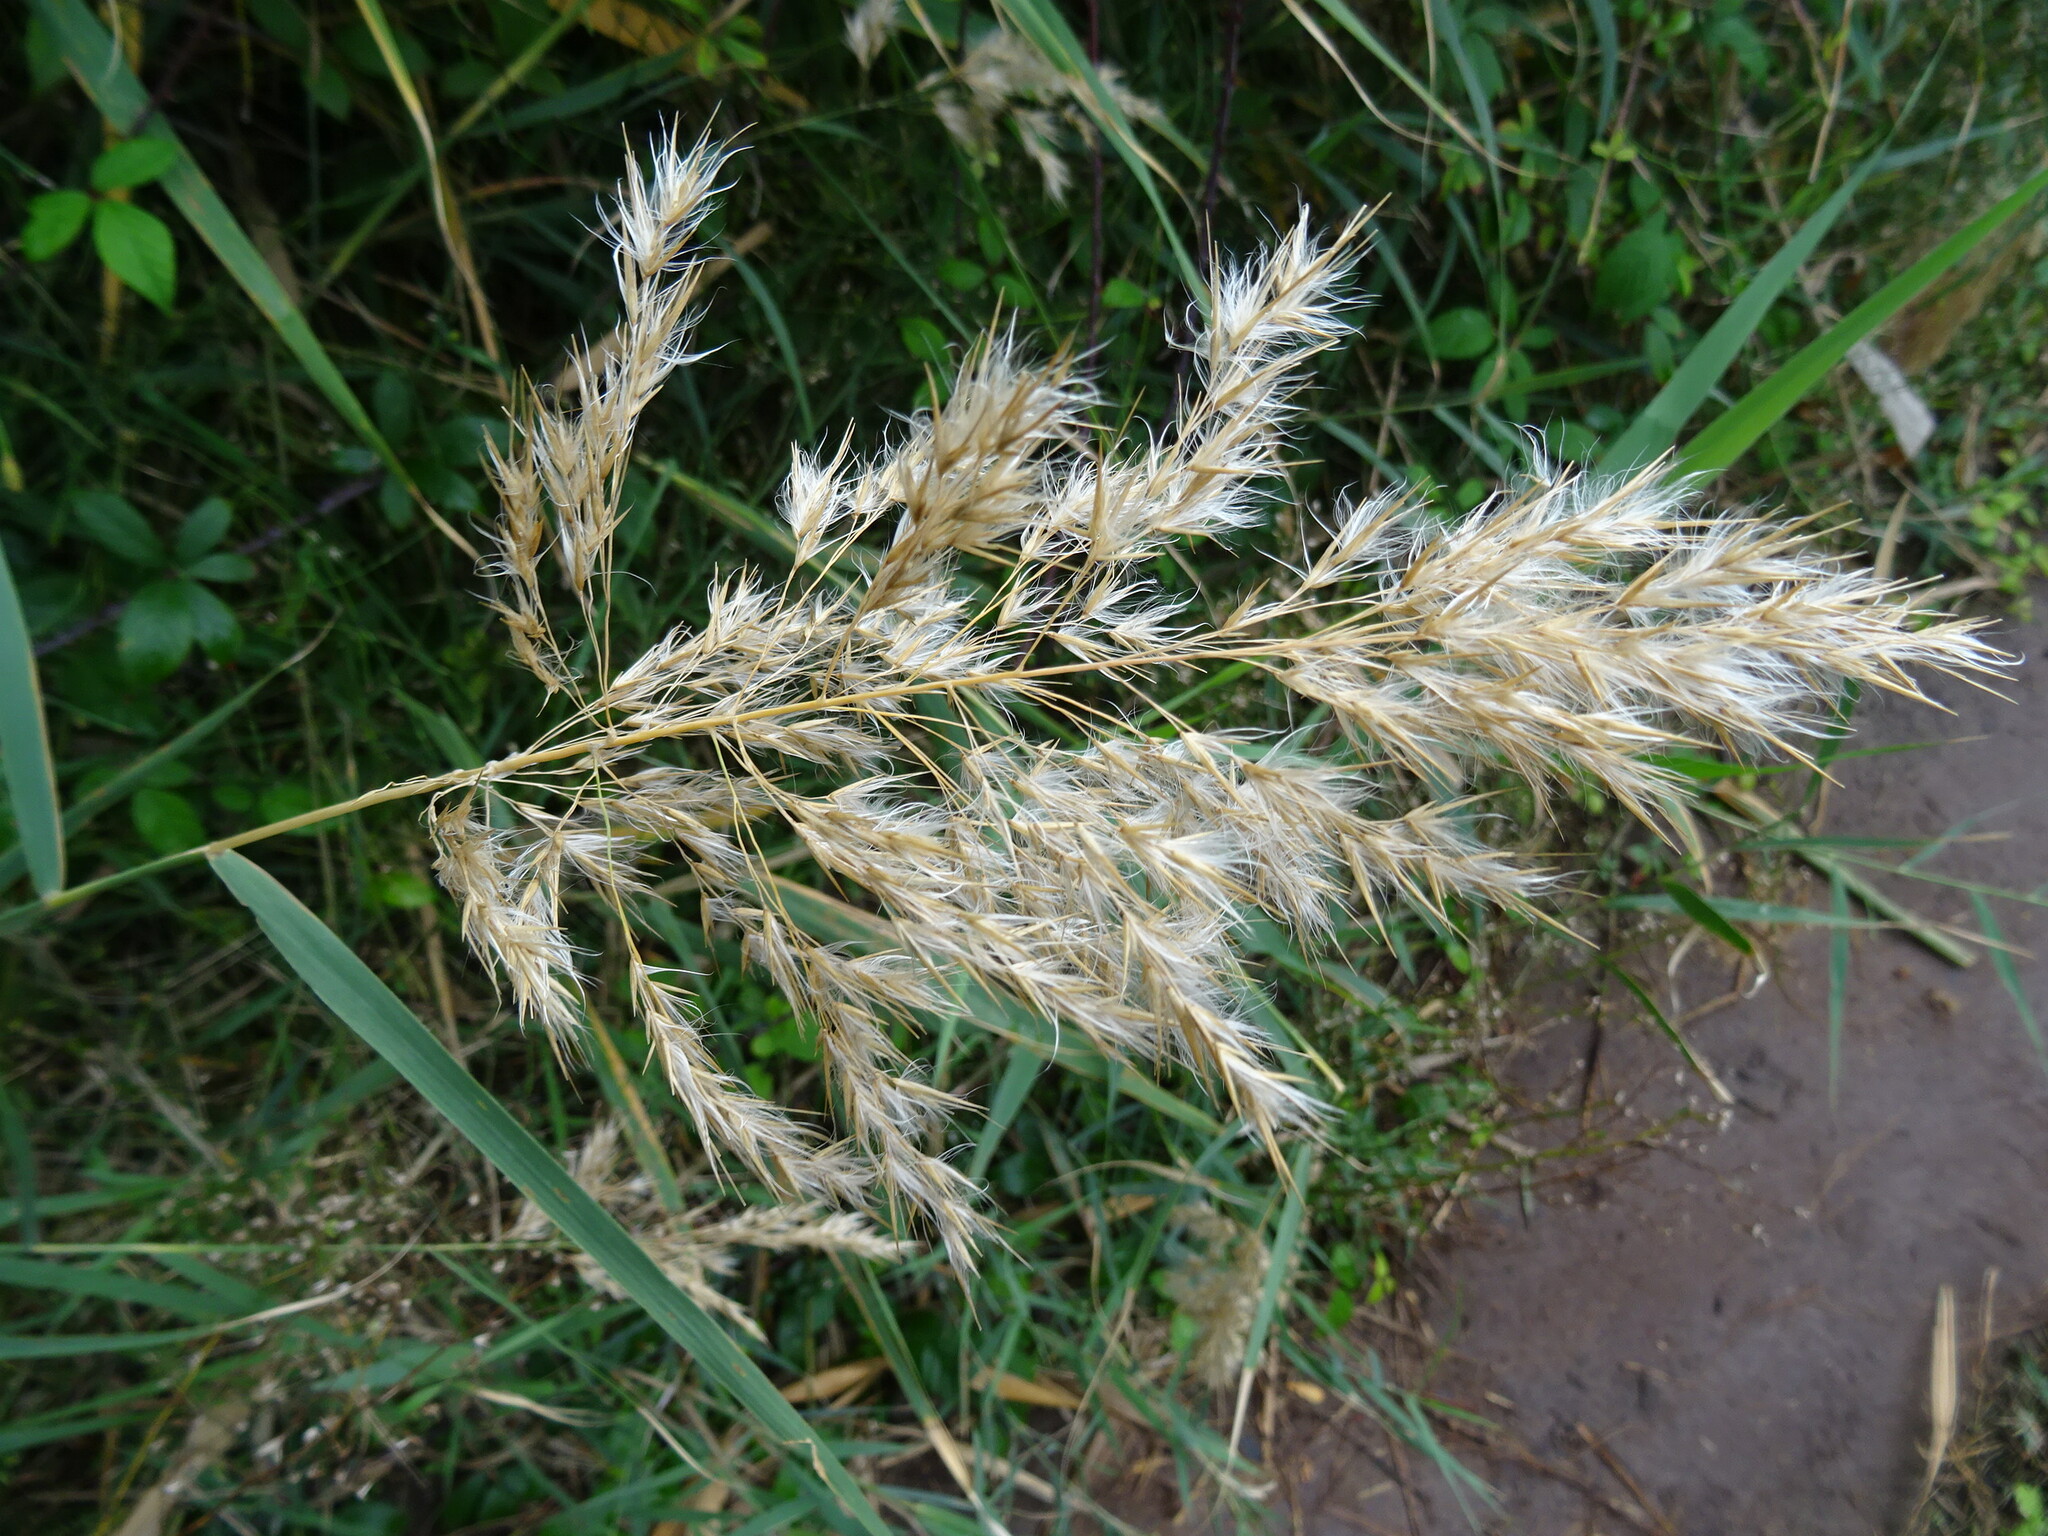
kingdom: Plantae
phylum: Tracheophyta
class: Liliopsida
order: Poales
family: Poaceae
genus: Phragmites
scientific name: Phragmites australis
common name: Common reed
